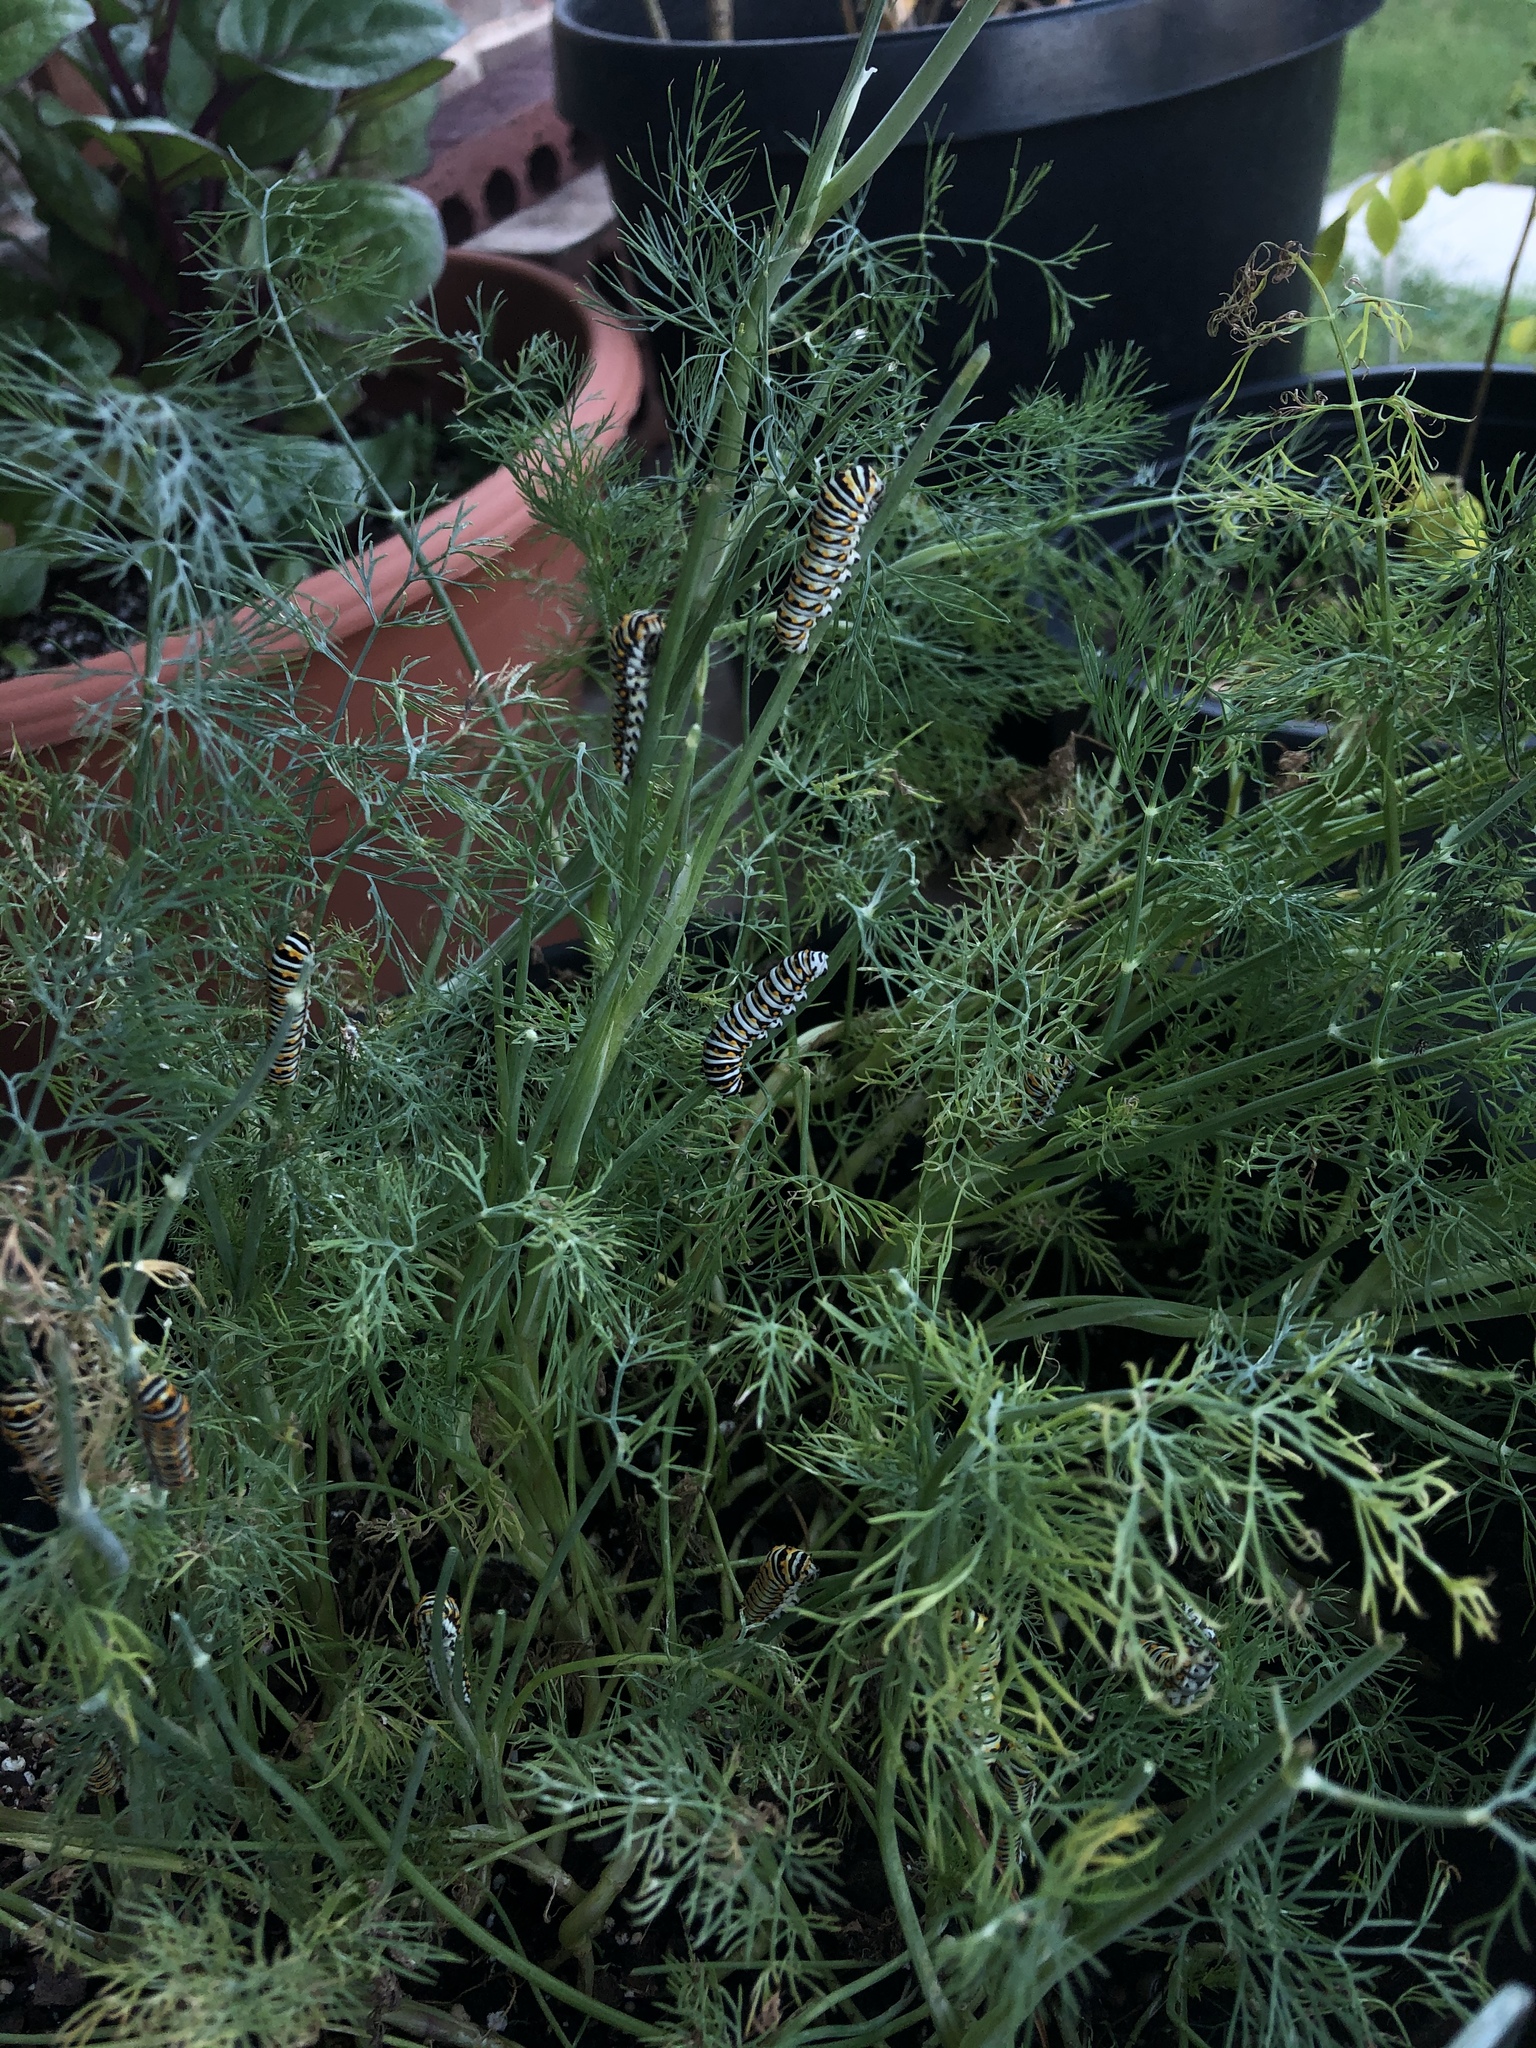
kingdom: Animalia
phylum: Arthropoda
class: Insecta
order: Lepidoptera
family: Papilionidae
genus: Papilio
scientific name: Papilio polyxenes
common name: Black swallowtail
